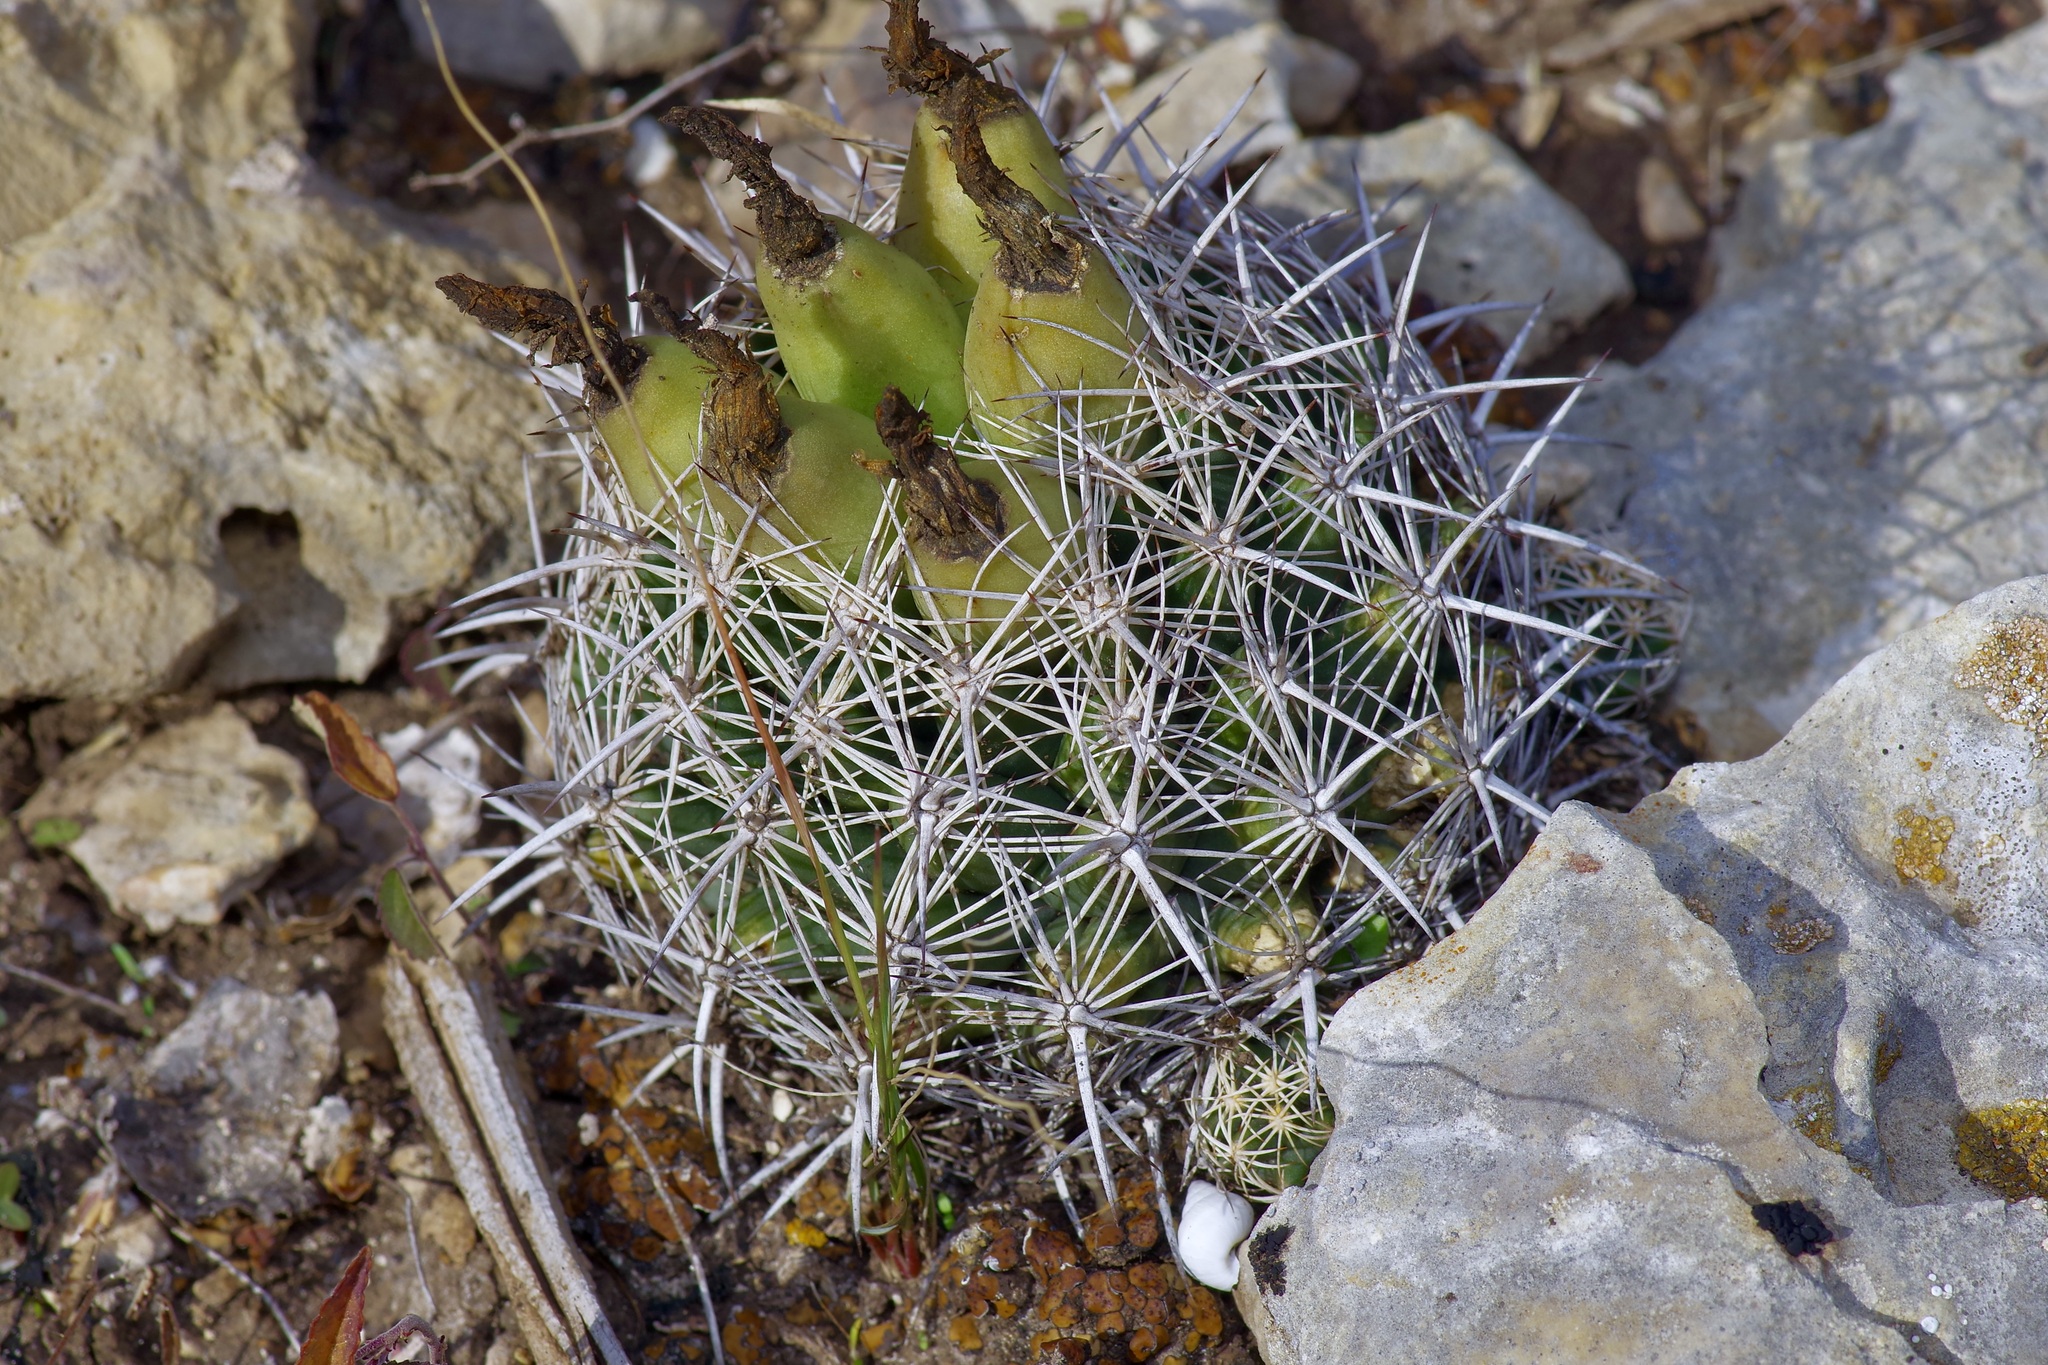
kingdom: Plantae
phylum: Tracheophyta
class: Magnoliopsida
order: Caryophyllales
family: Cactaceae
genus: Coryphantha
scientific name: Coryphantha sulcata
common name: Finger cactus
